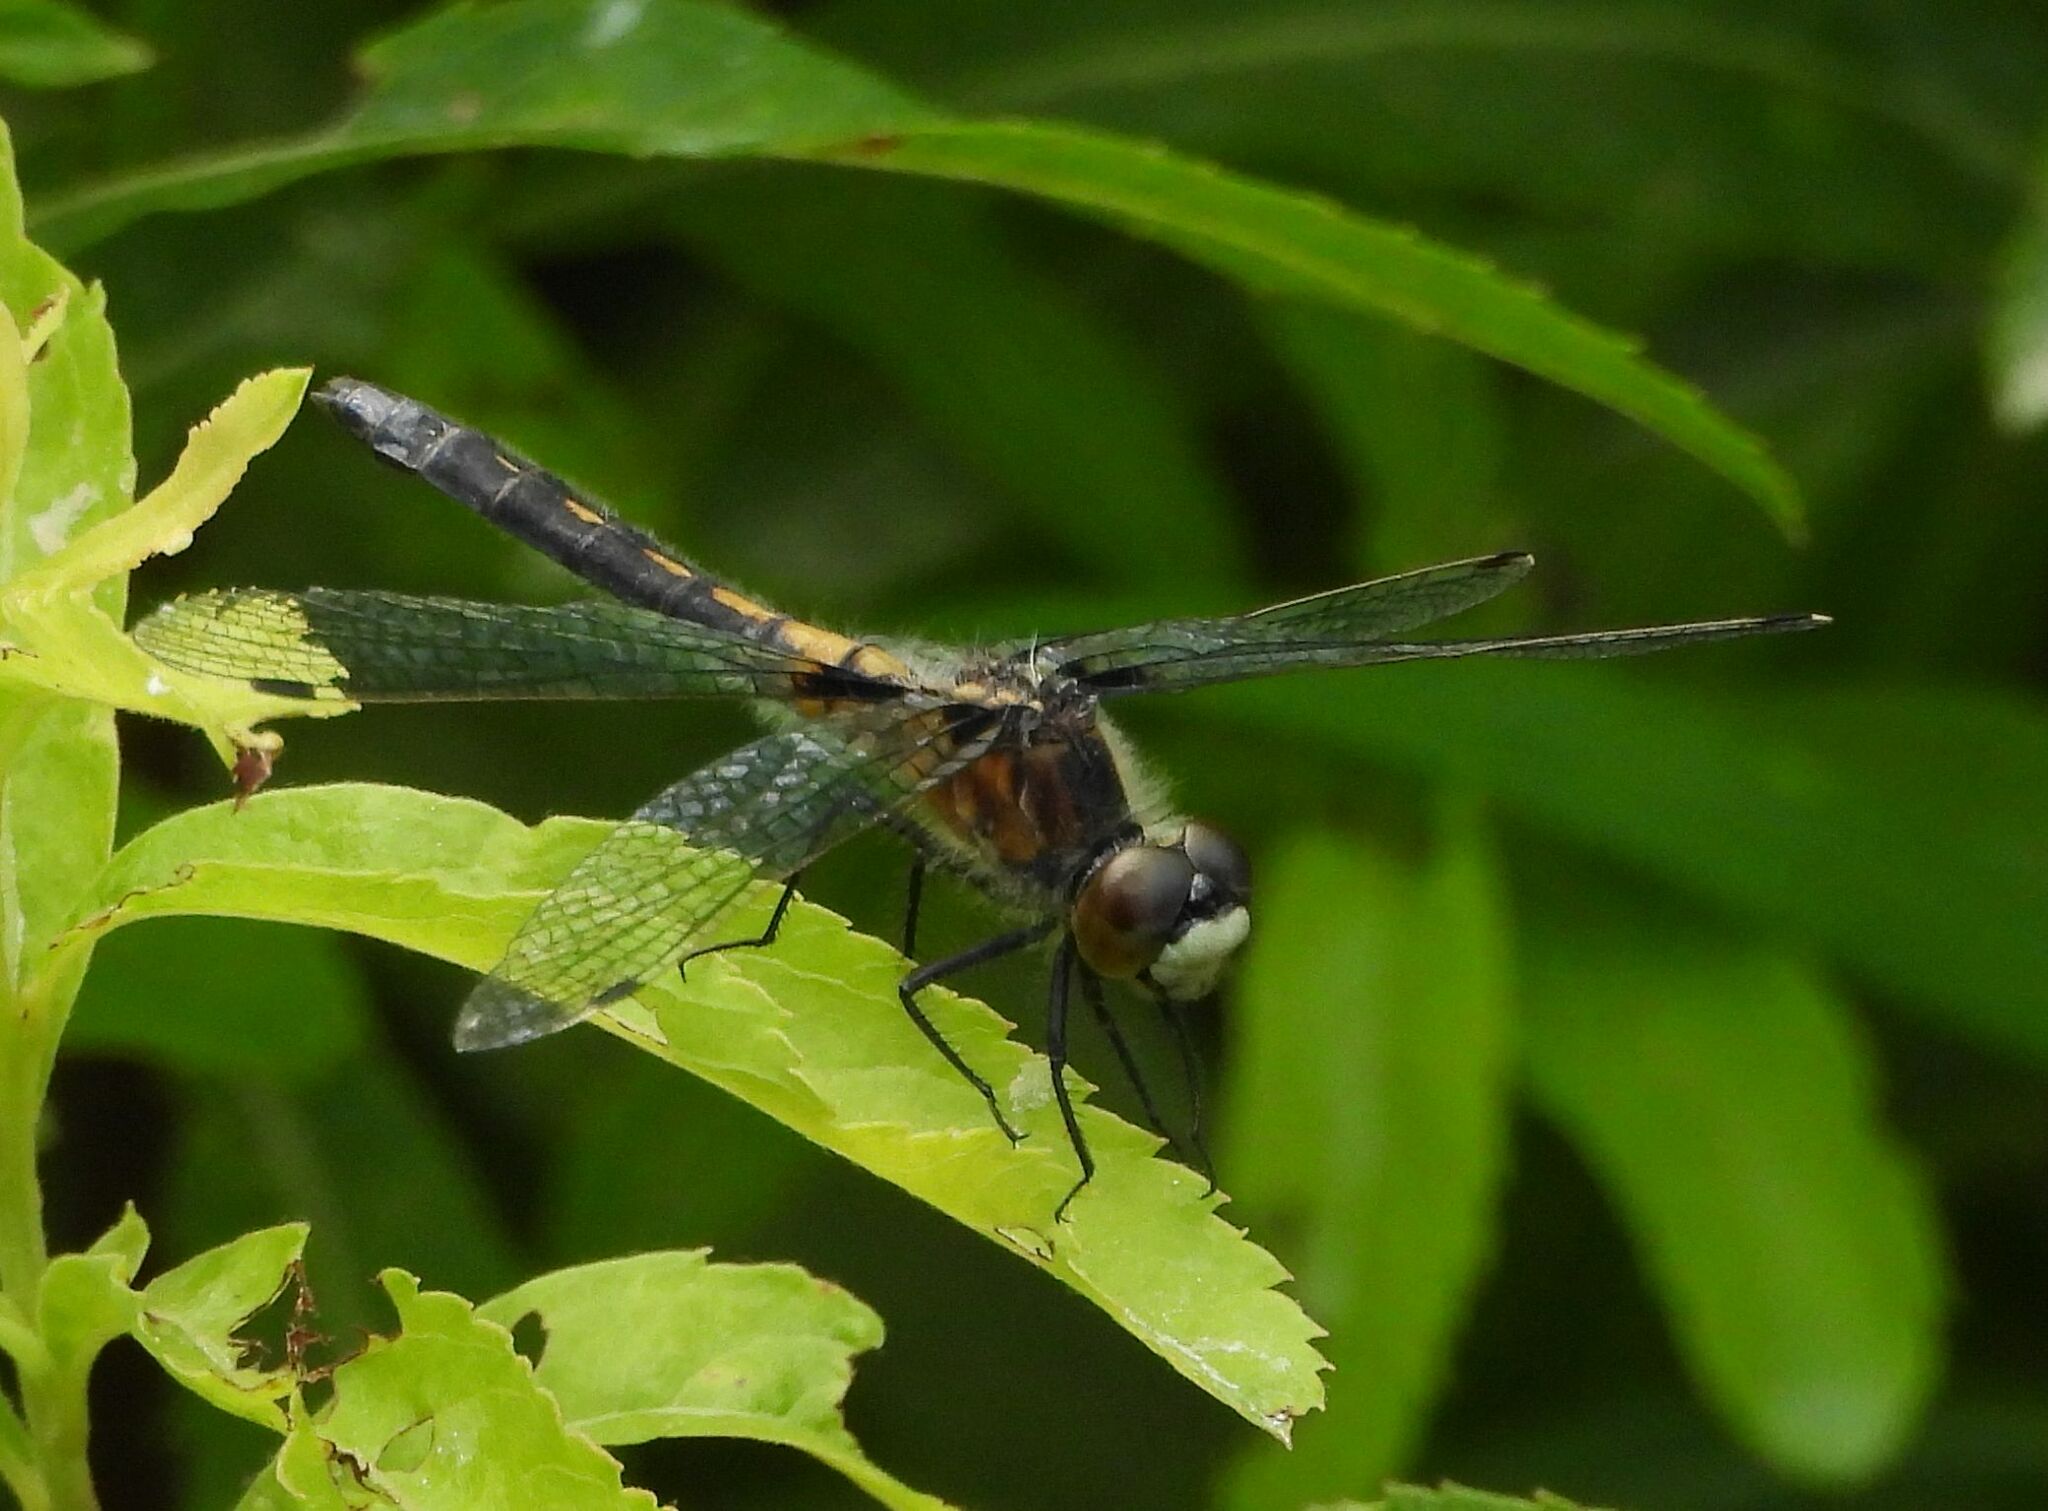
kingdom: Animalia
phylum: Arthropoda
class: Insecta
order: Odonata
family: Libellulidae
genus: Leucorrhinia
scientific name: Leucorrhinia frigida
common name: Frosted whiteface
